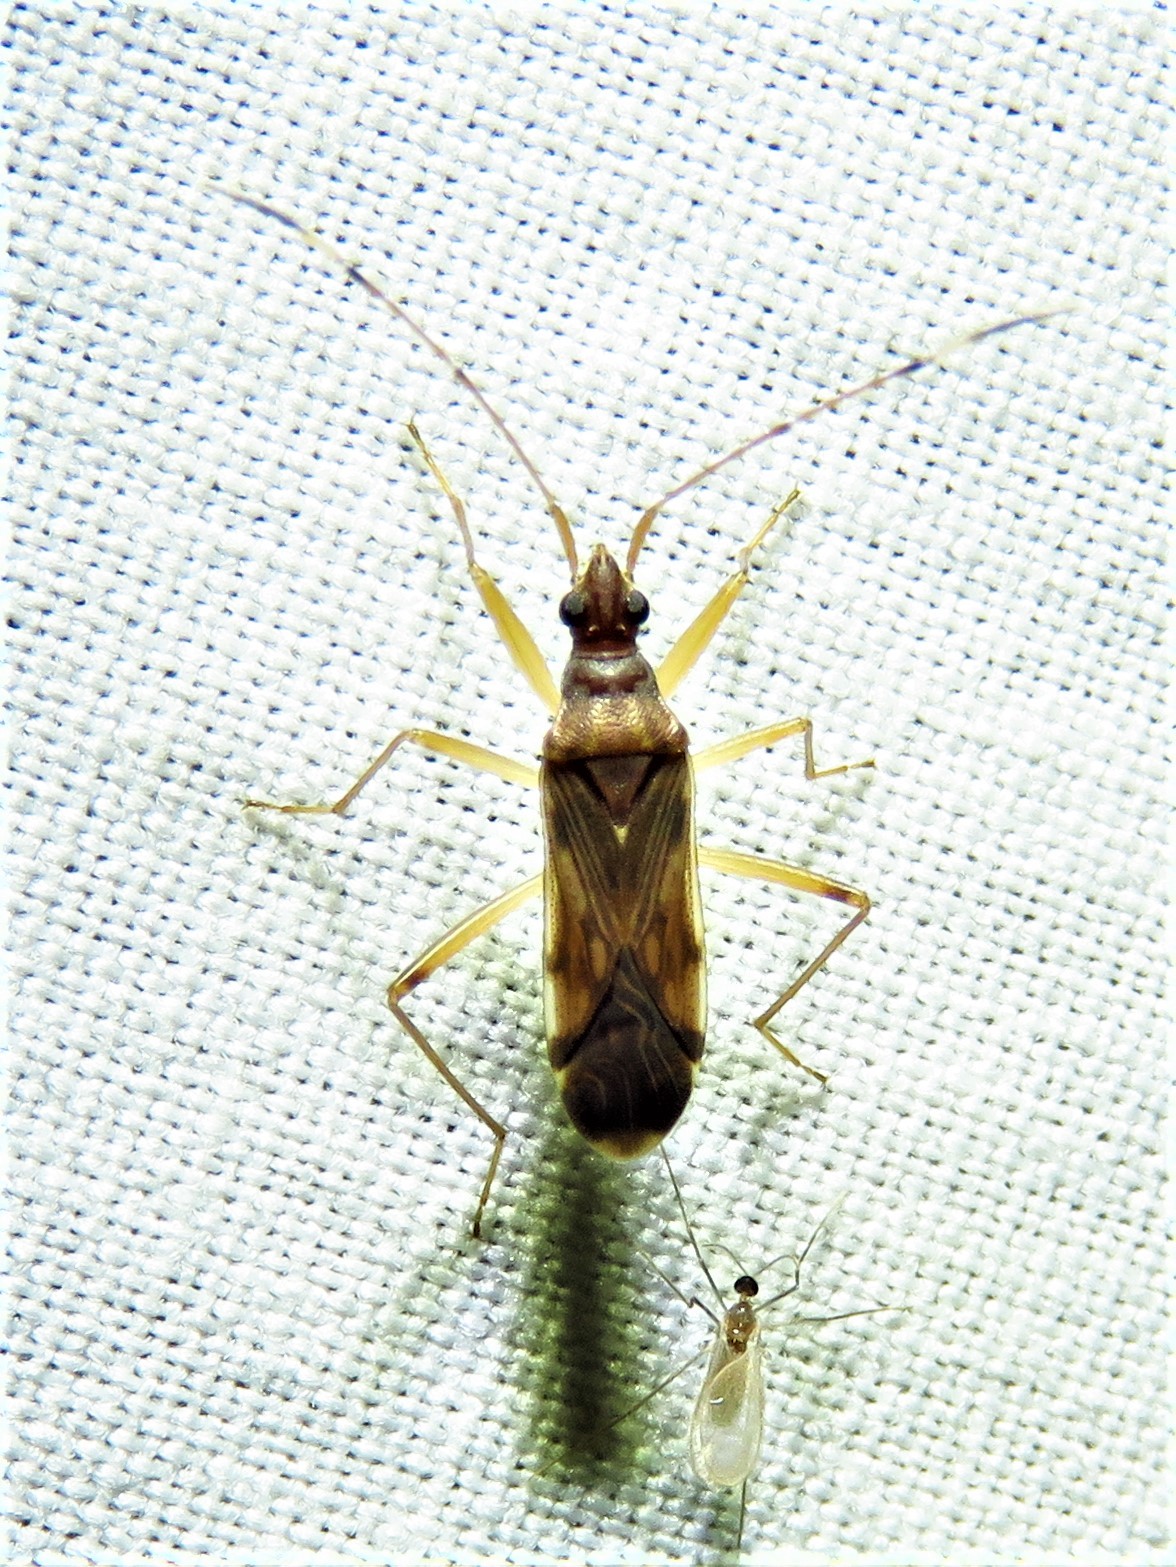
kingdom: Animalia
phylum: Arthropoda
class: Insecta
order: Hemiptera
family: Rhyparochromidae
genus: Ozophora
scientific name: Ozophora depicturata
